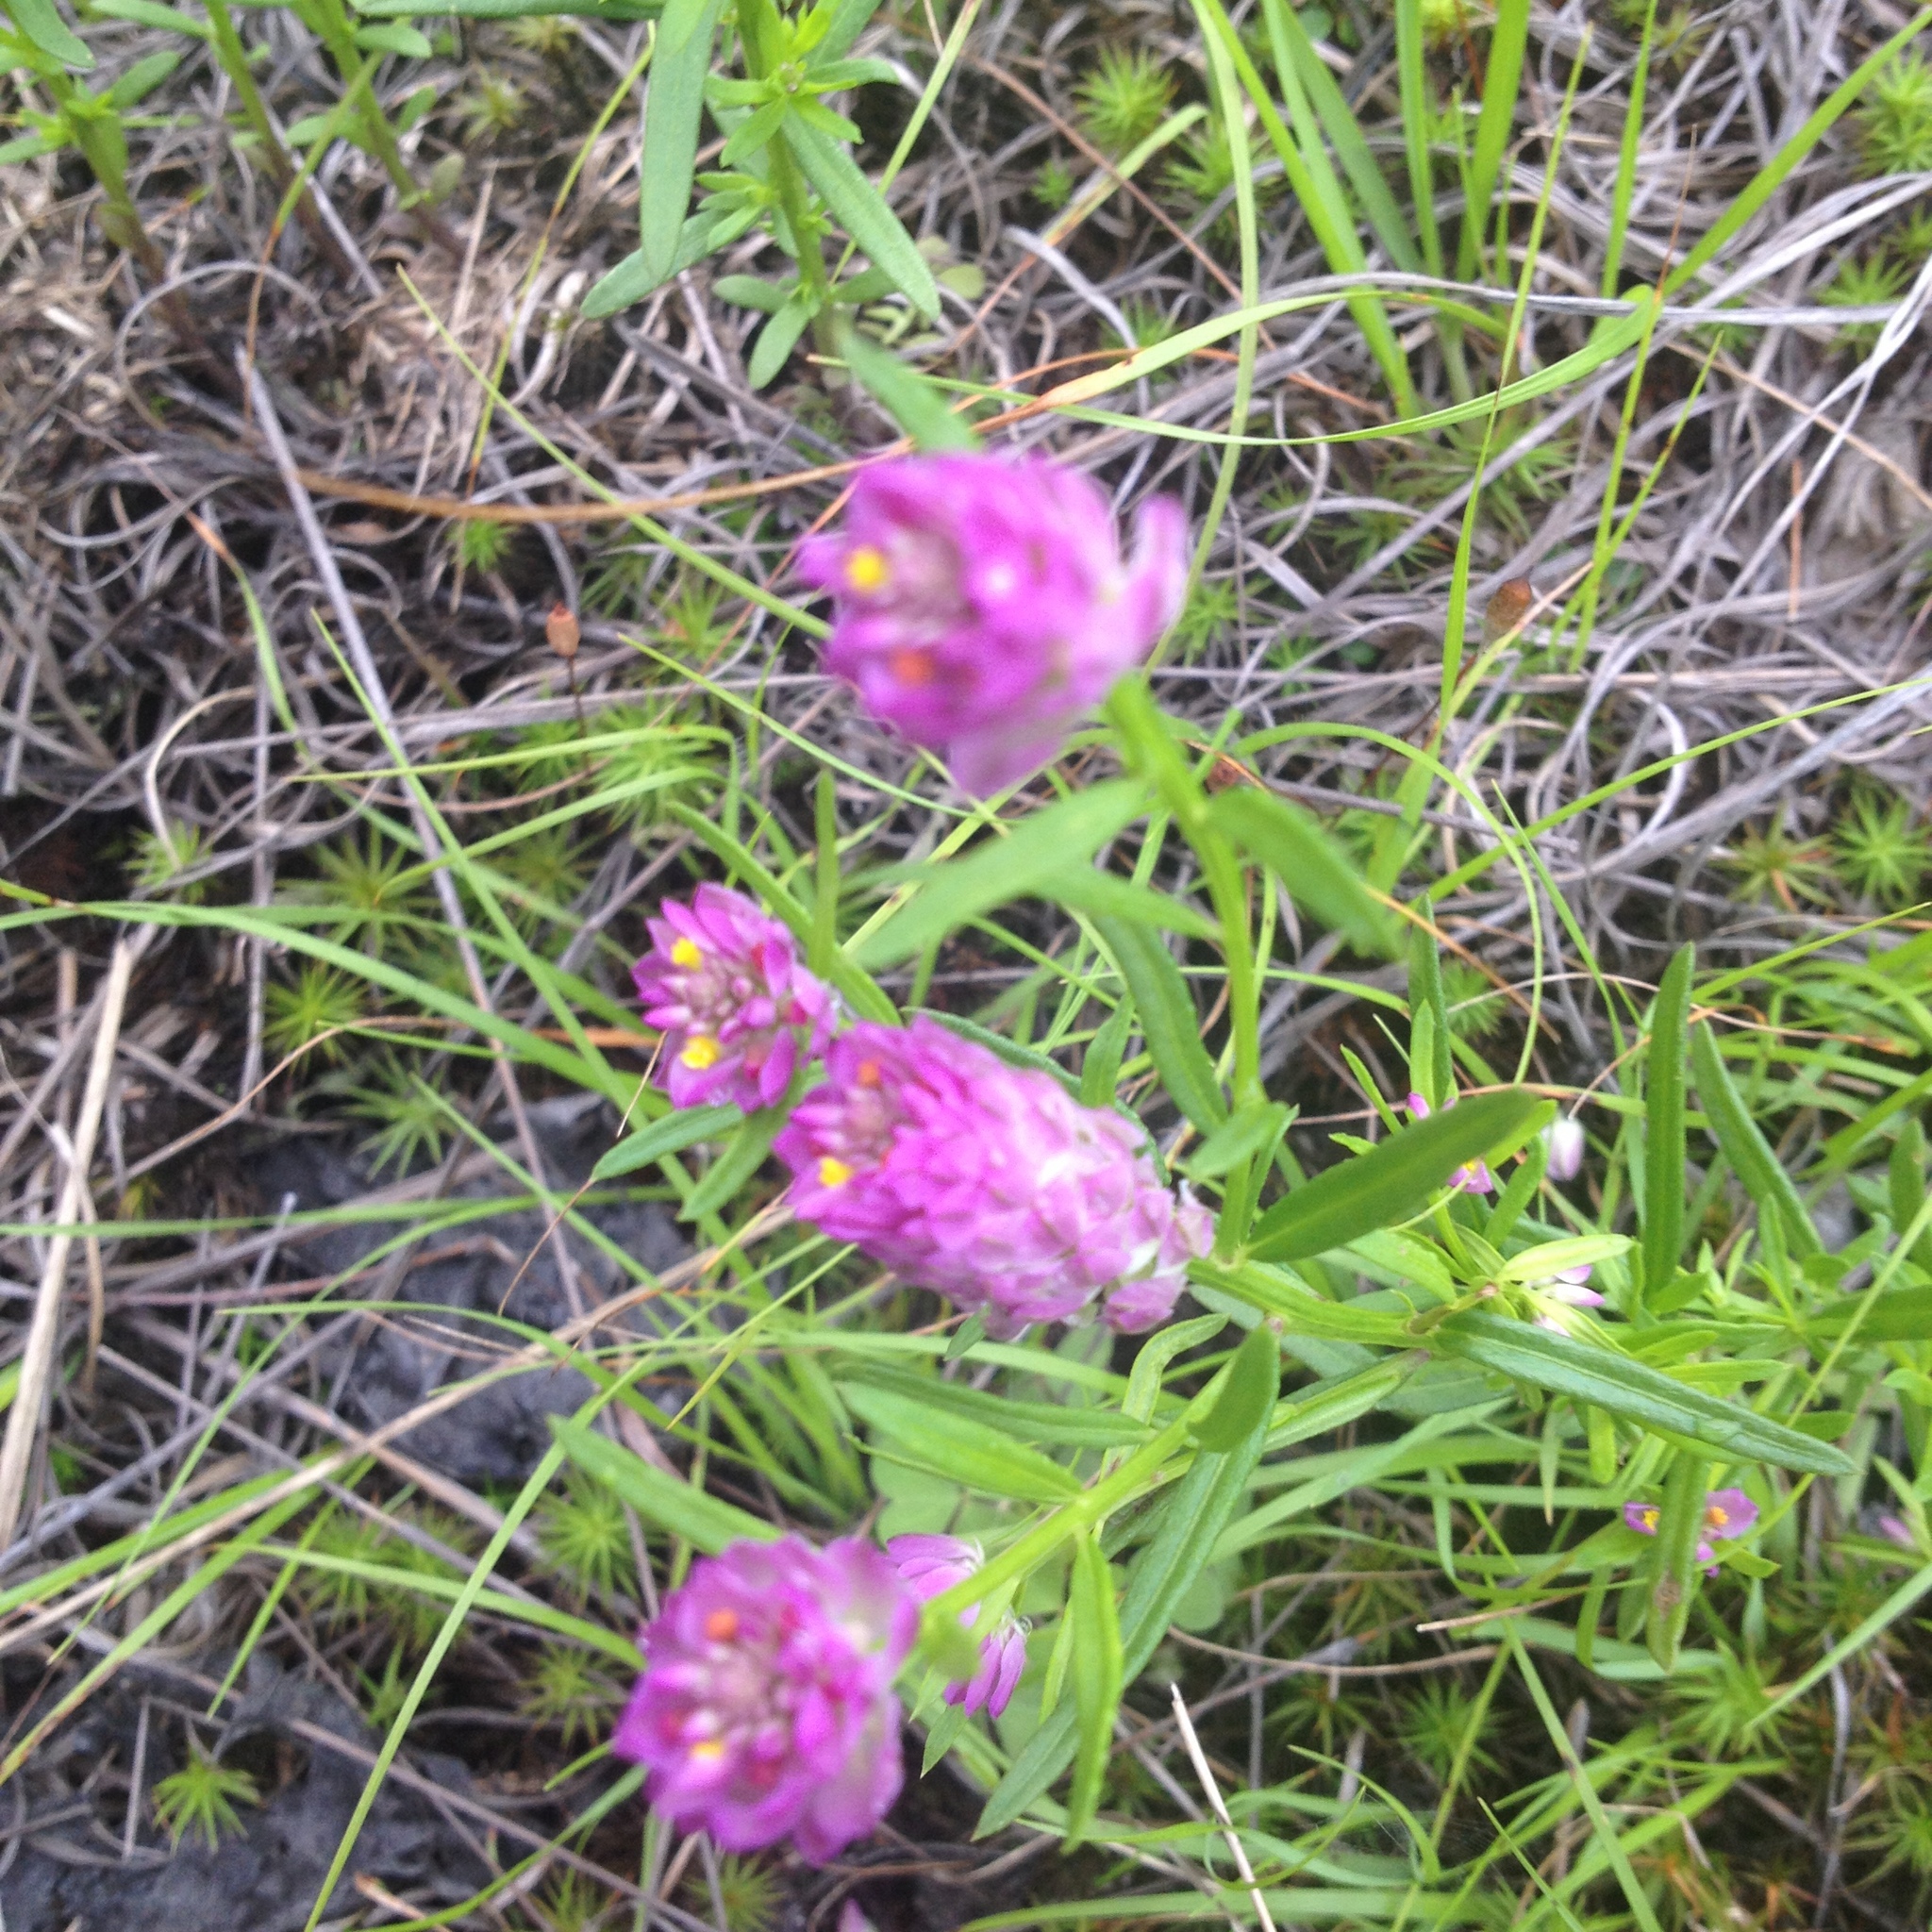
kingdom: Plantae
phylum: Tracheophyta
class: Magnoliopsida
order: Fabales
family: Polygalaceae
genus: Polygala
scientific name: Polygala sanguinea
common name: Blood milkwort
